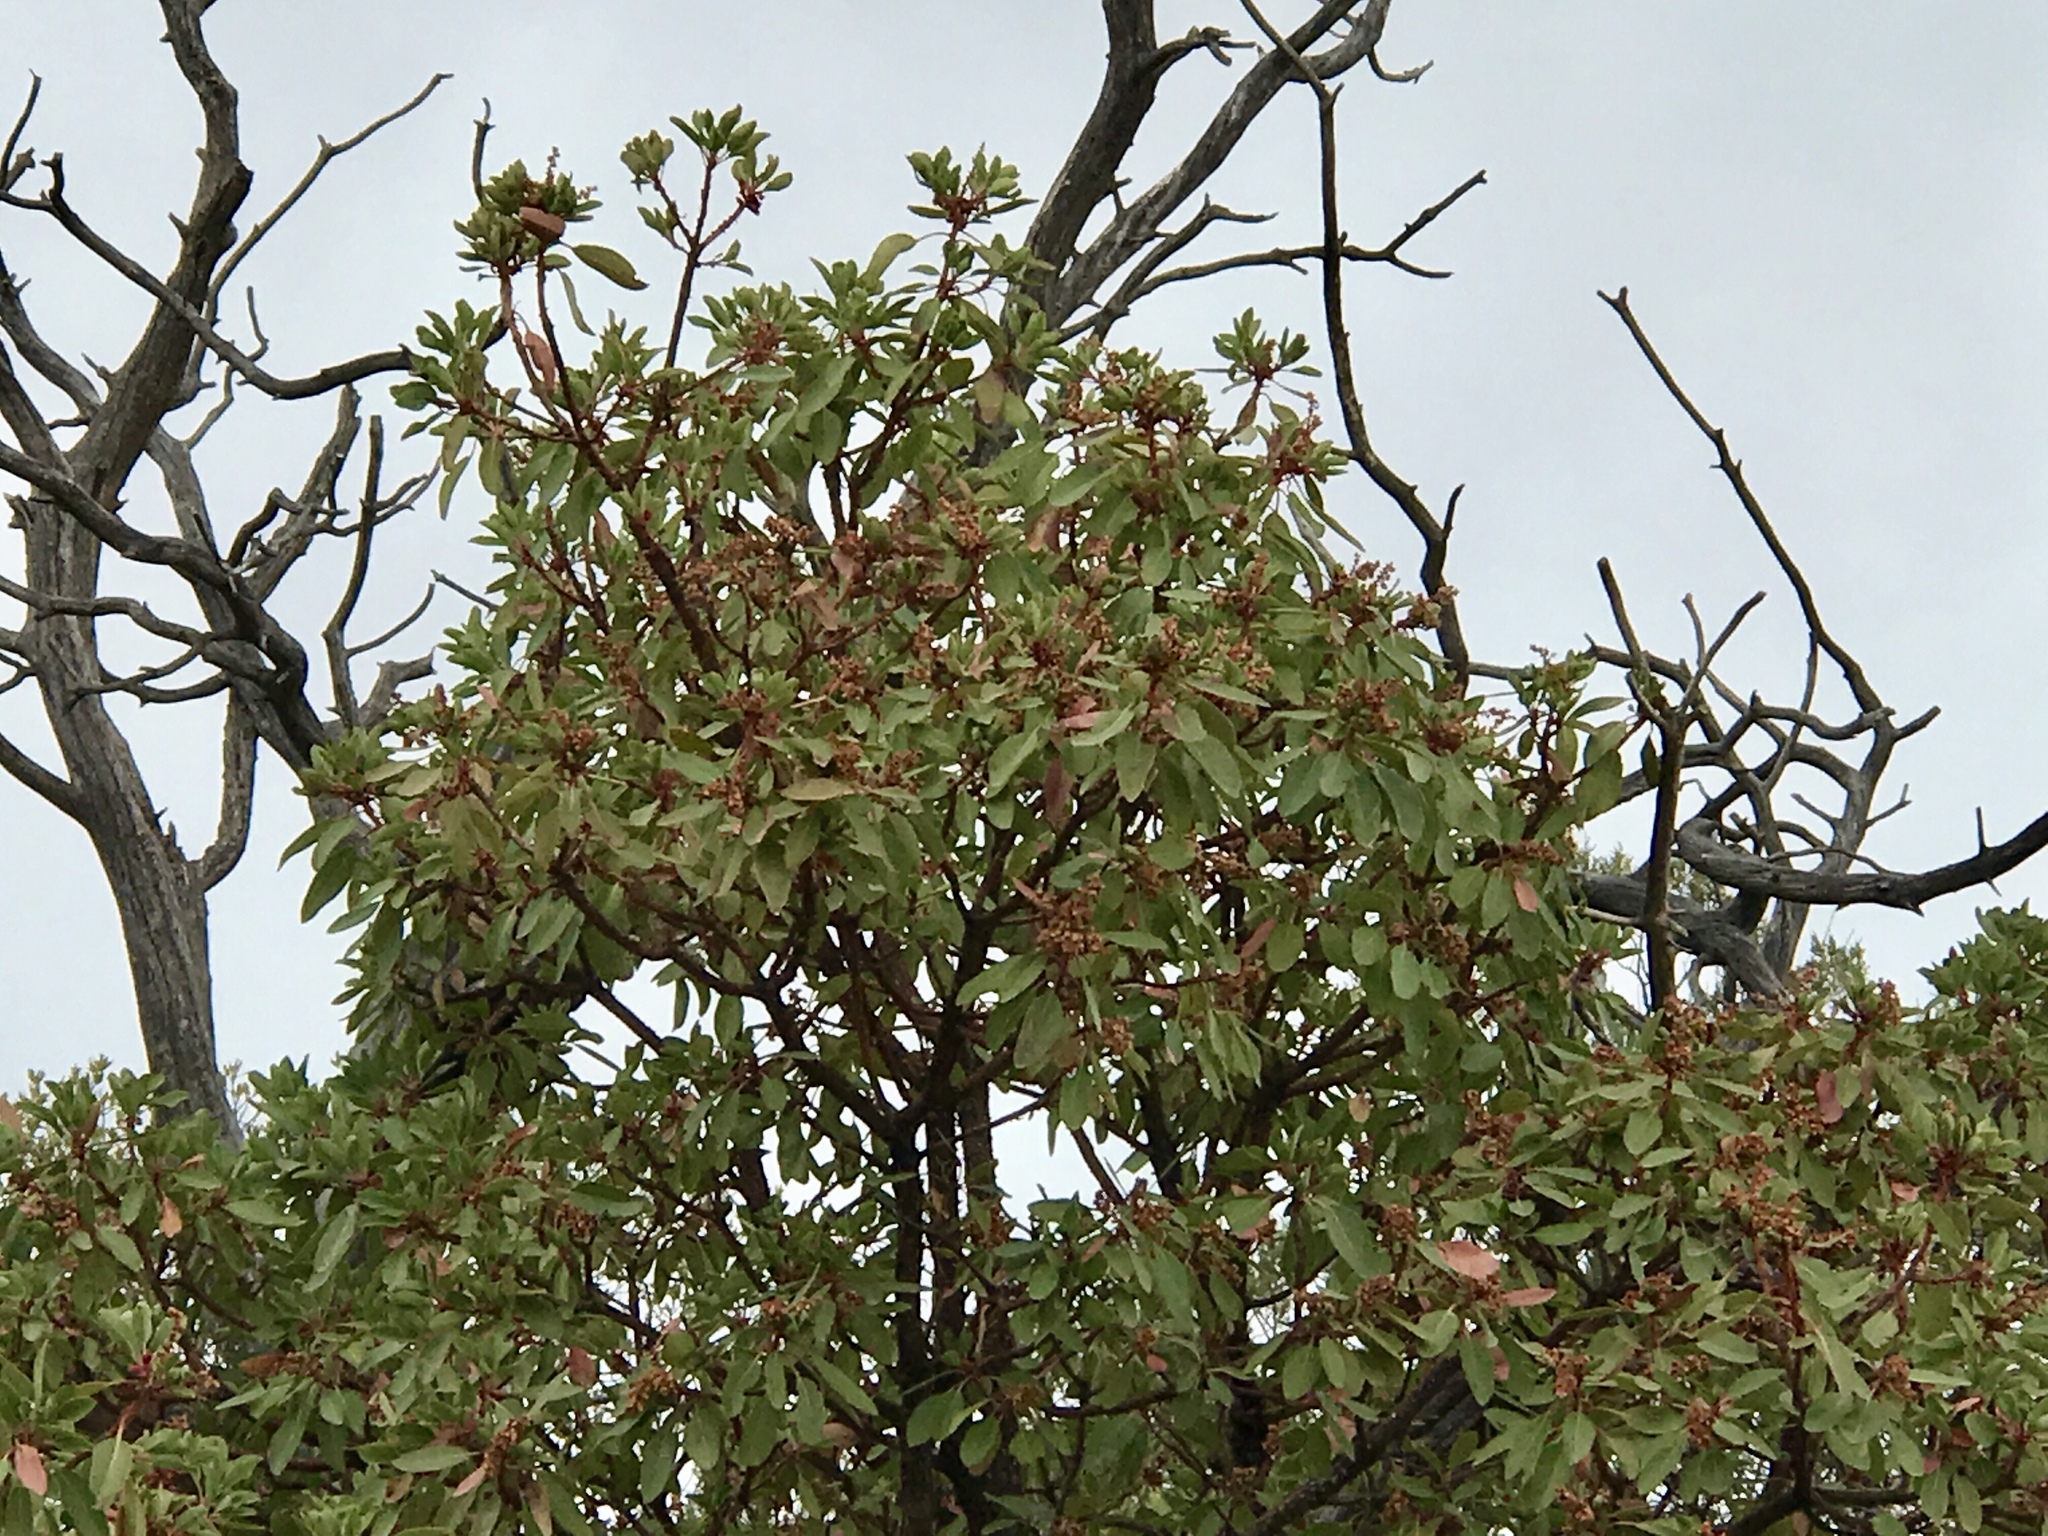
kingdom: Plantae
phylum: Tracheophyta
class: Magnoliopsida
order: Ericales
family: Ericaceae
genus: Arbutus
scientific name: Arbutus arizonica
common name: Arizona madrone
